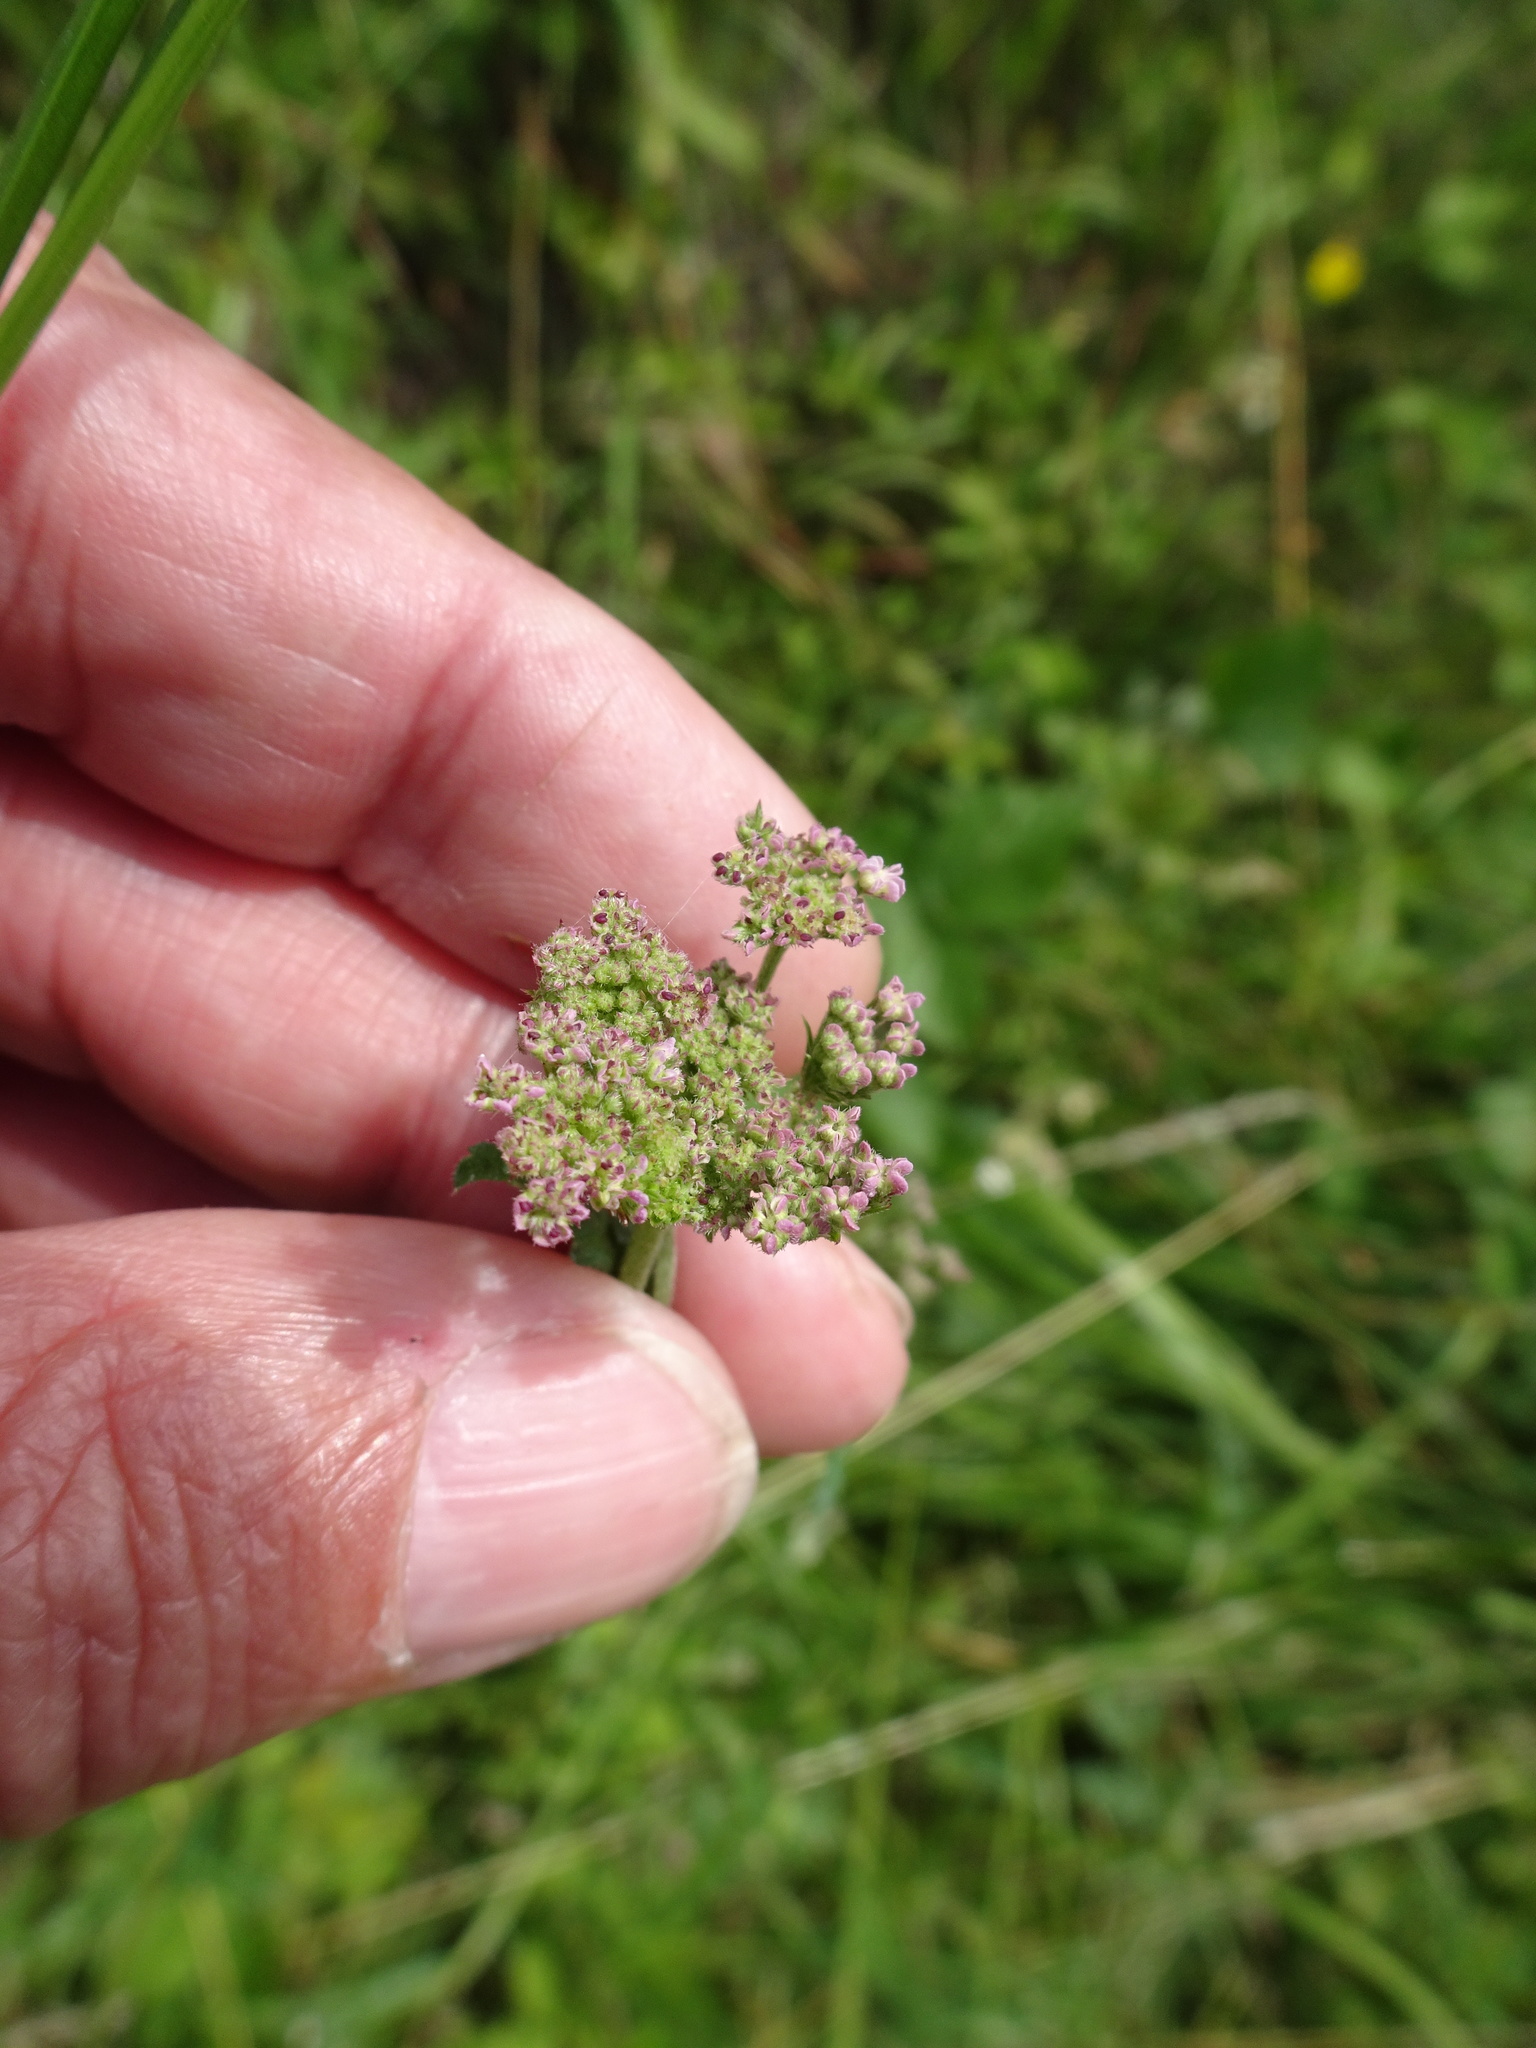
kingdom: Plantae
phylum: Tracheophyta
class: Magnoliopsida
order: Apiales
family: Apiaceae
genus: Torilis
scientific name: Torilis japonica
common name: Upright hedge-parsley
